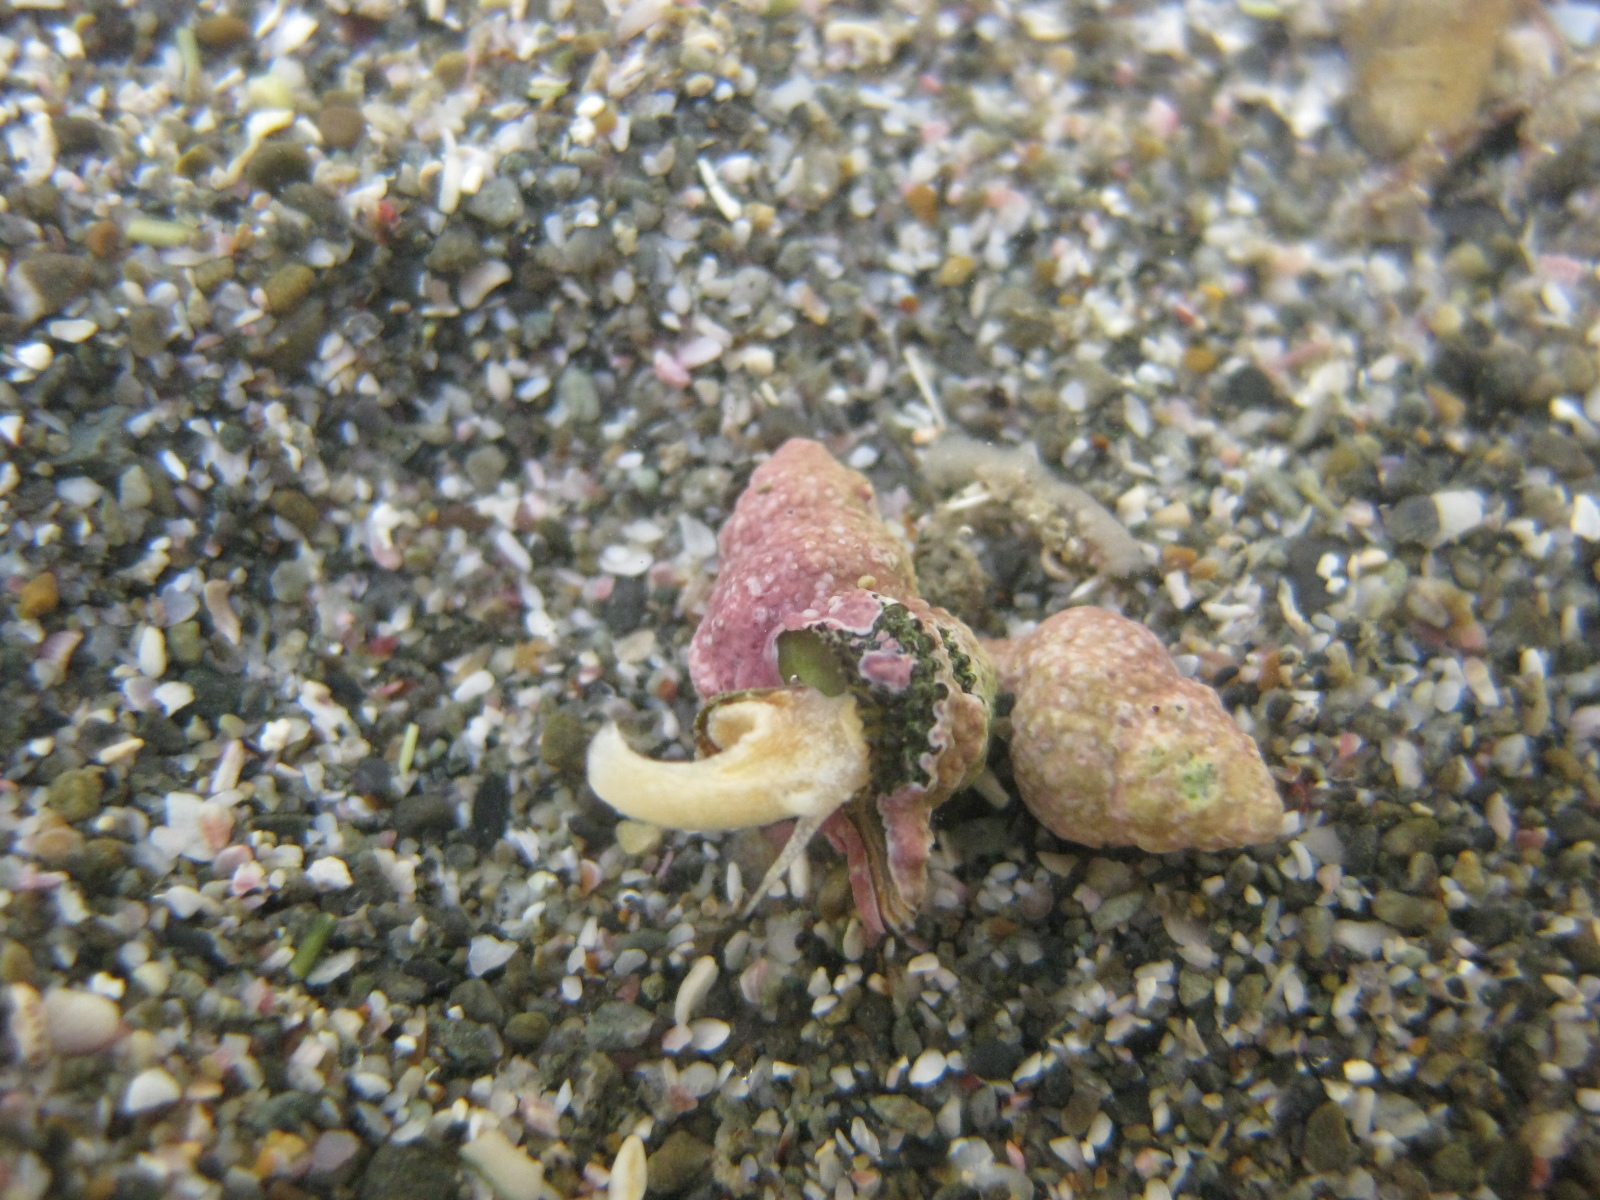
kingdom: Animalia
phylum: Mollusca
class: Gastropoda
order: Neogastropoda
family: Muricidae
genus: Murexsul
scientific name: Murexsul mariae
